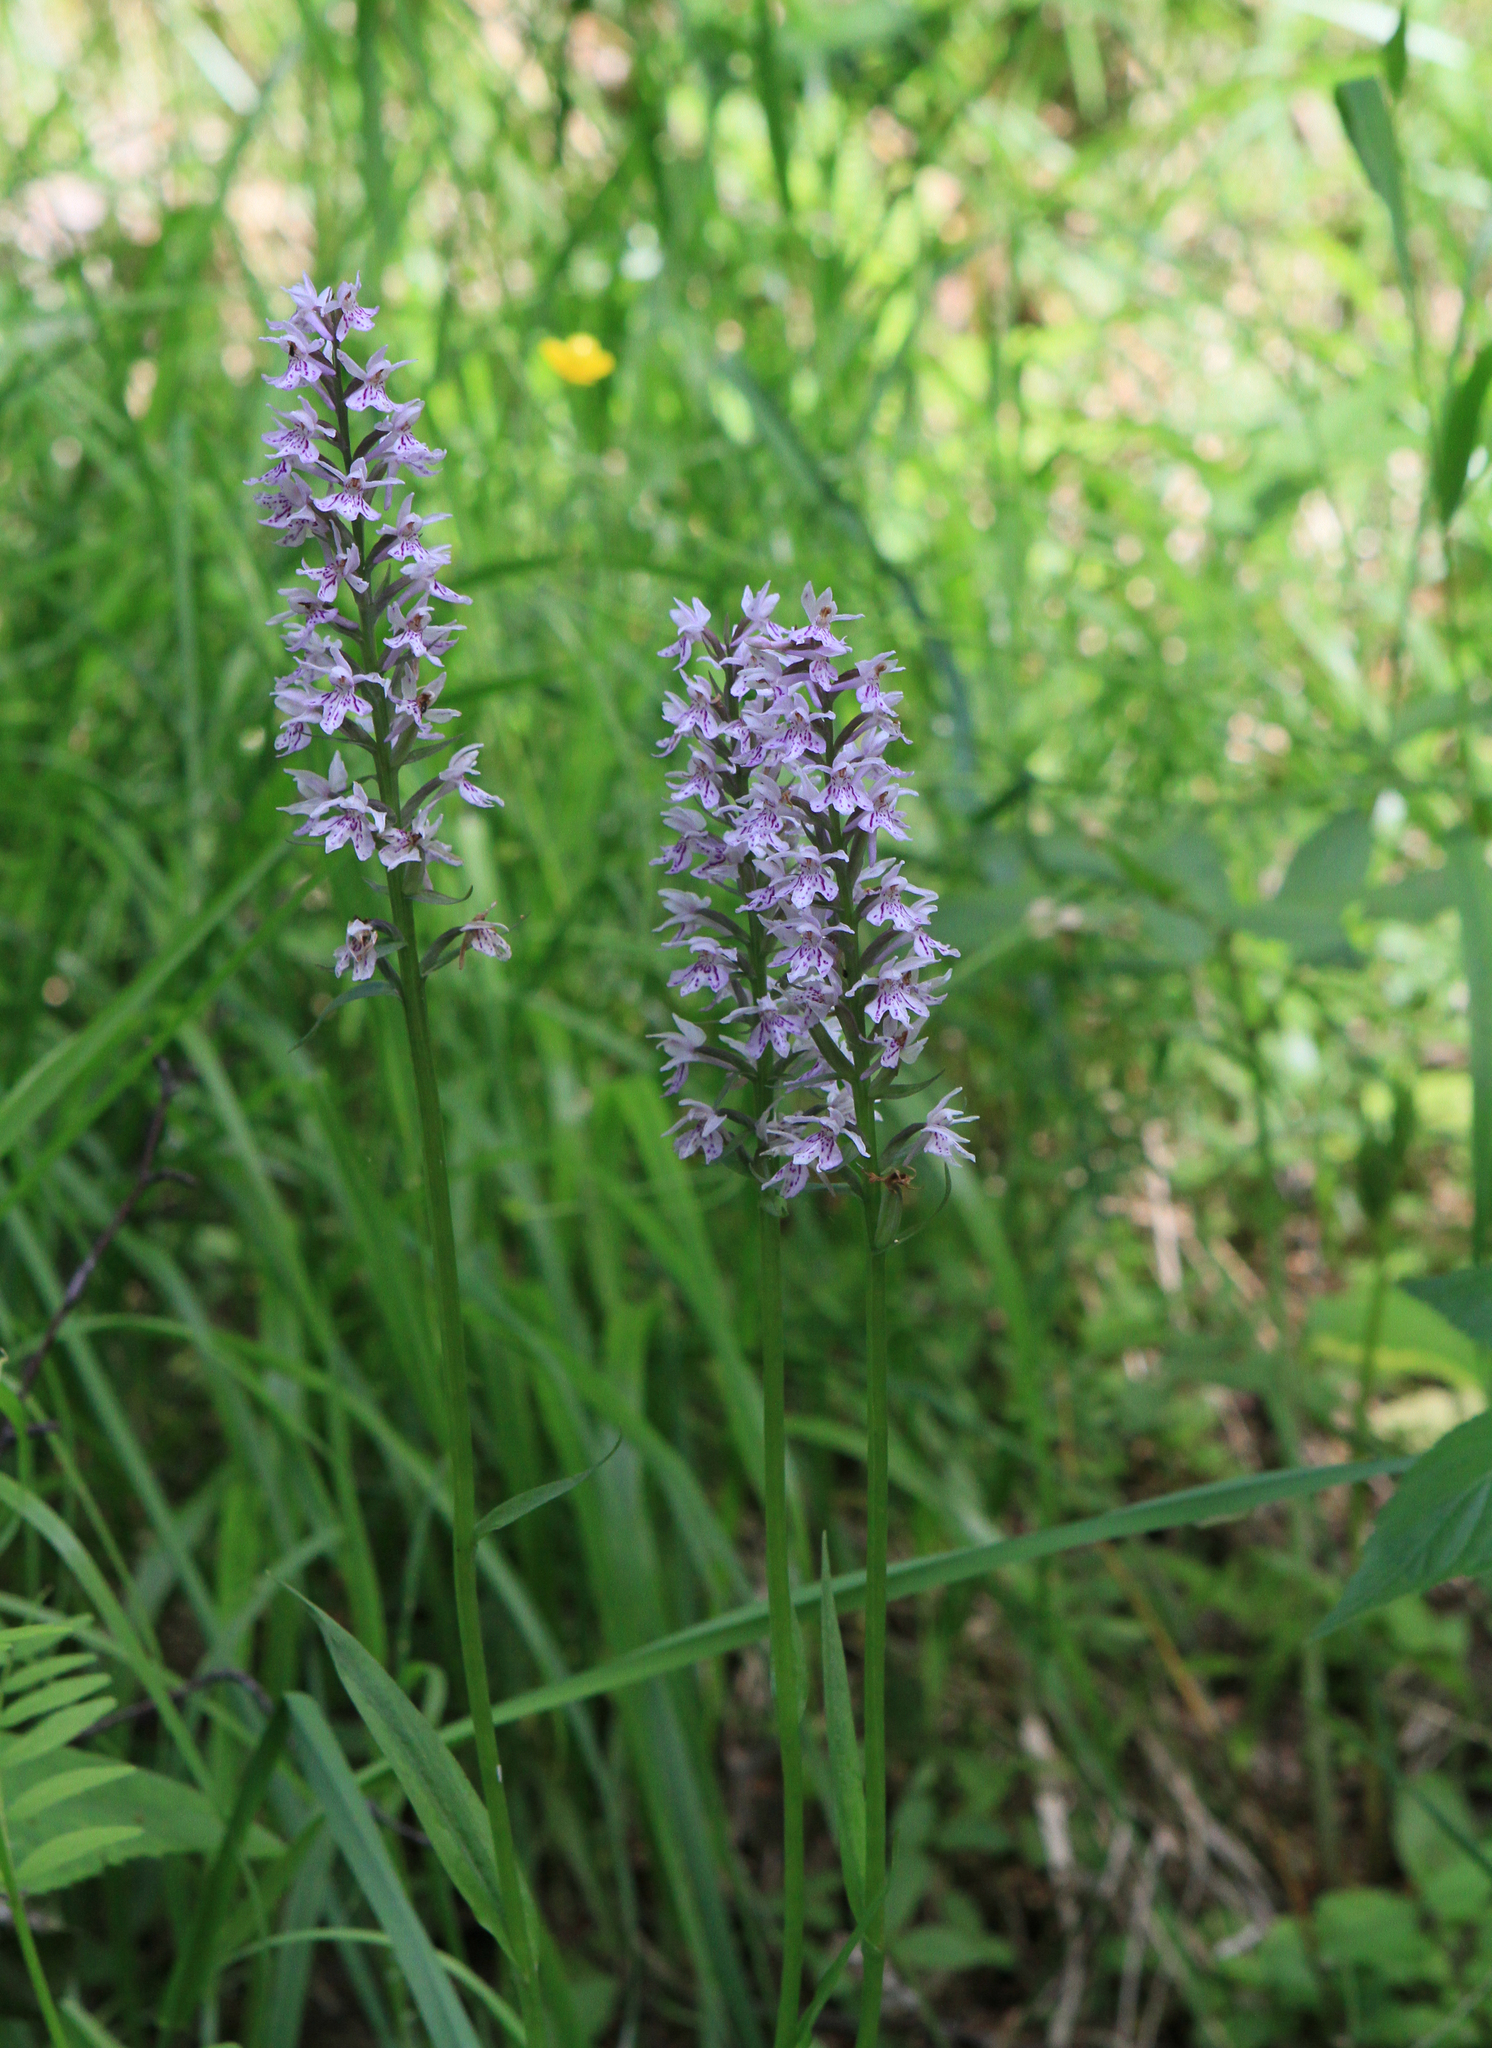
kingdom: Plantae
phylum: Tracheophyta
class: Liliopsida
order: Asparagales
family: Orchidaceae
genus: Dactylorhiza
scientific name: Dactylorhiza maculata
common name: Heath spotted-orchid
